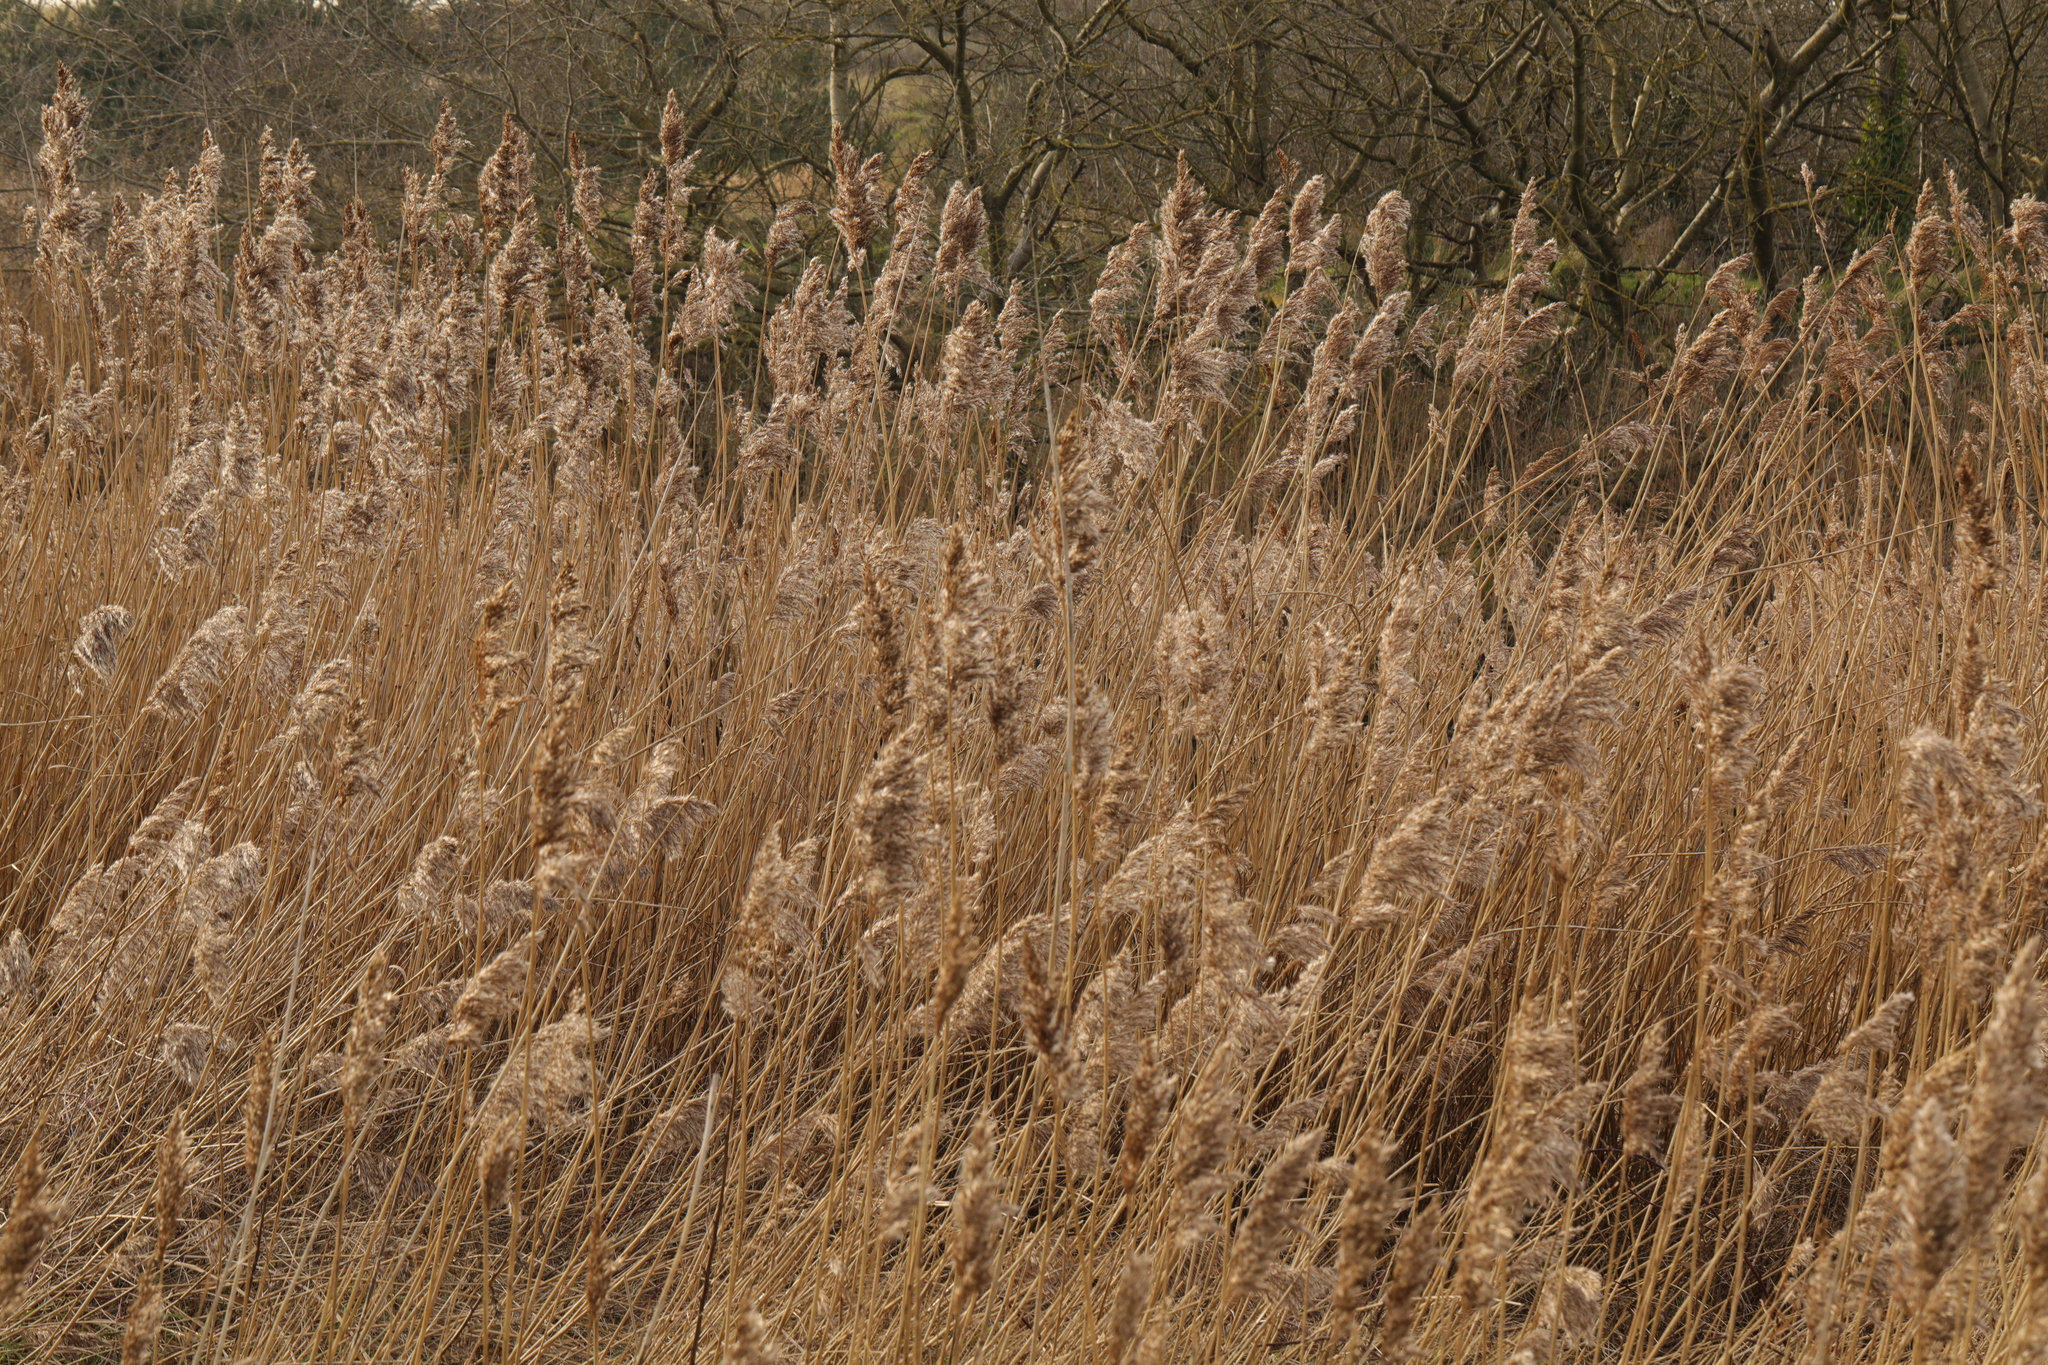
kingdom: Plantae
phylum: Tracheophyta
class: Liliopsida
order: Poales
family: Poaceae
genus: Phragmites
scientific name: Phragmites australis
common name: Common reed
